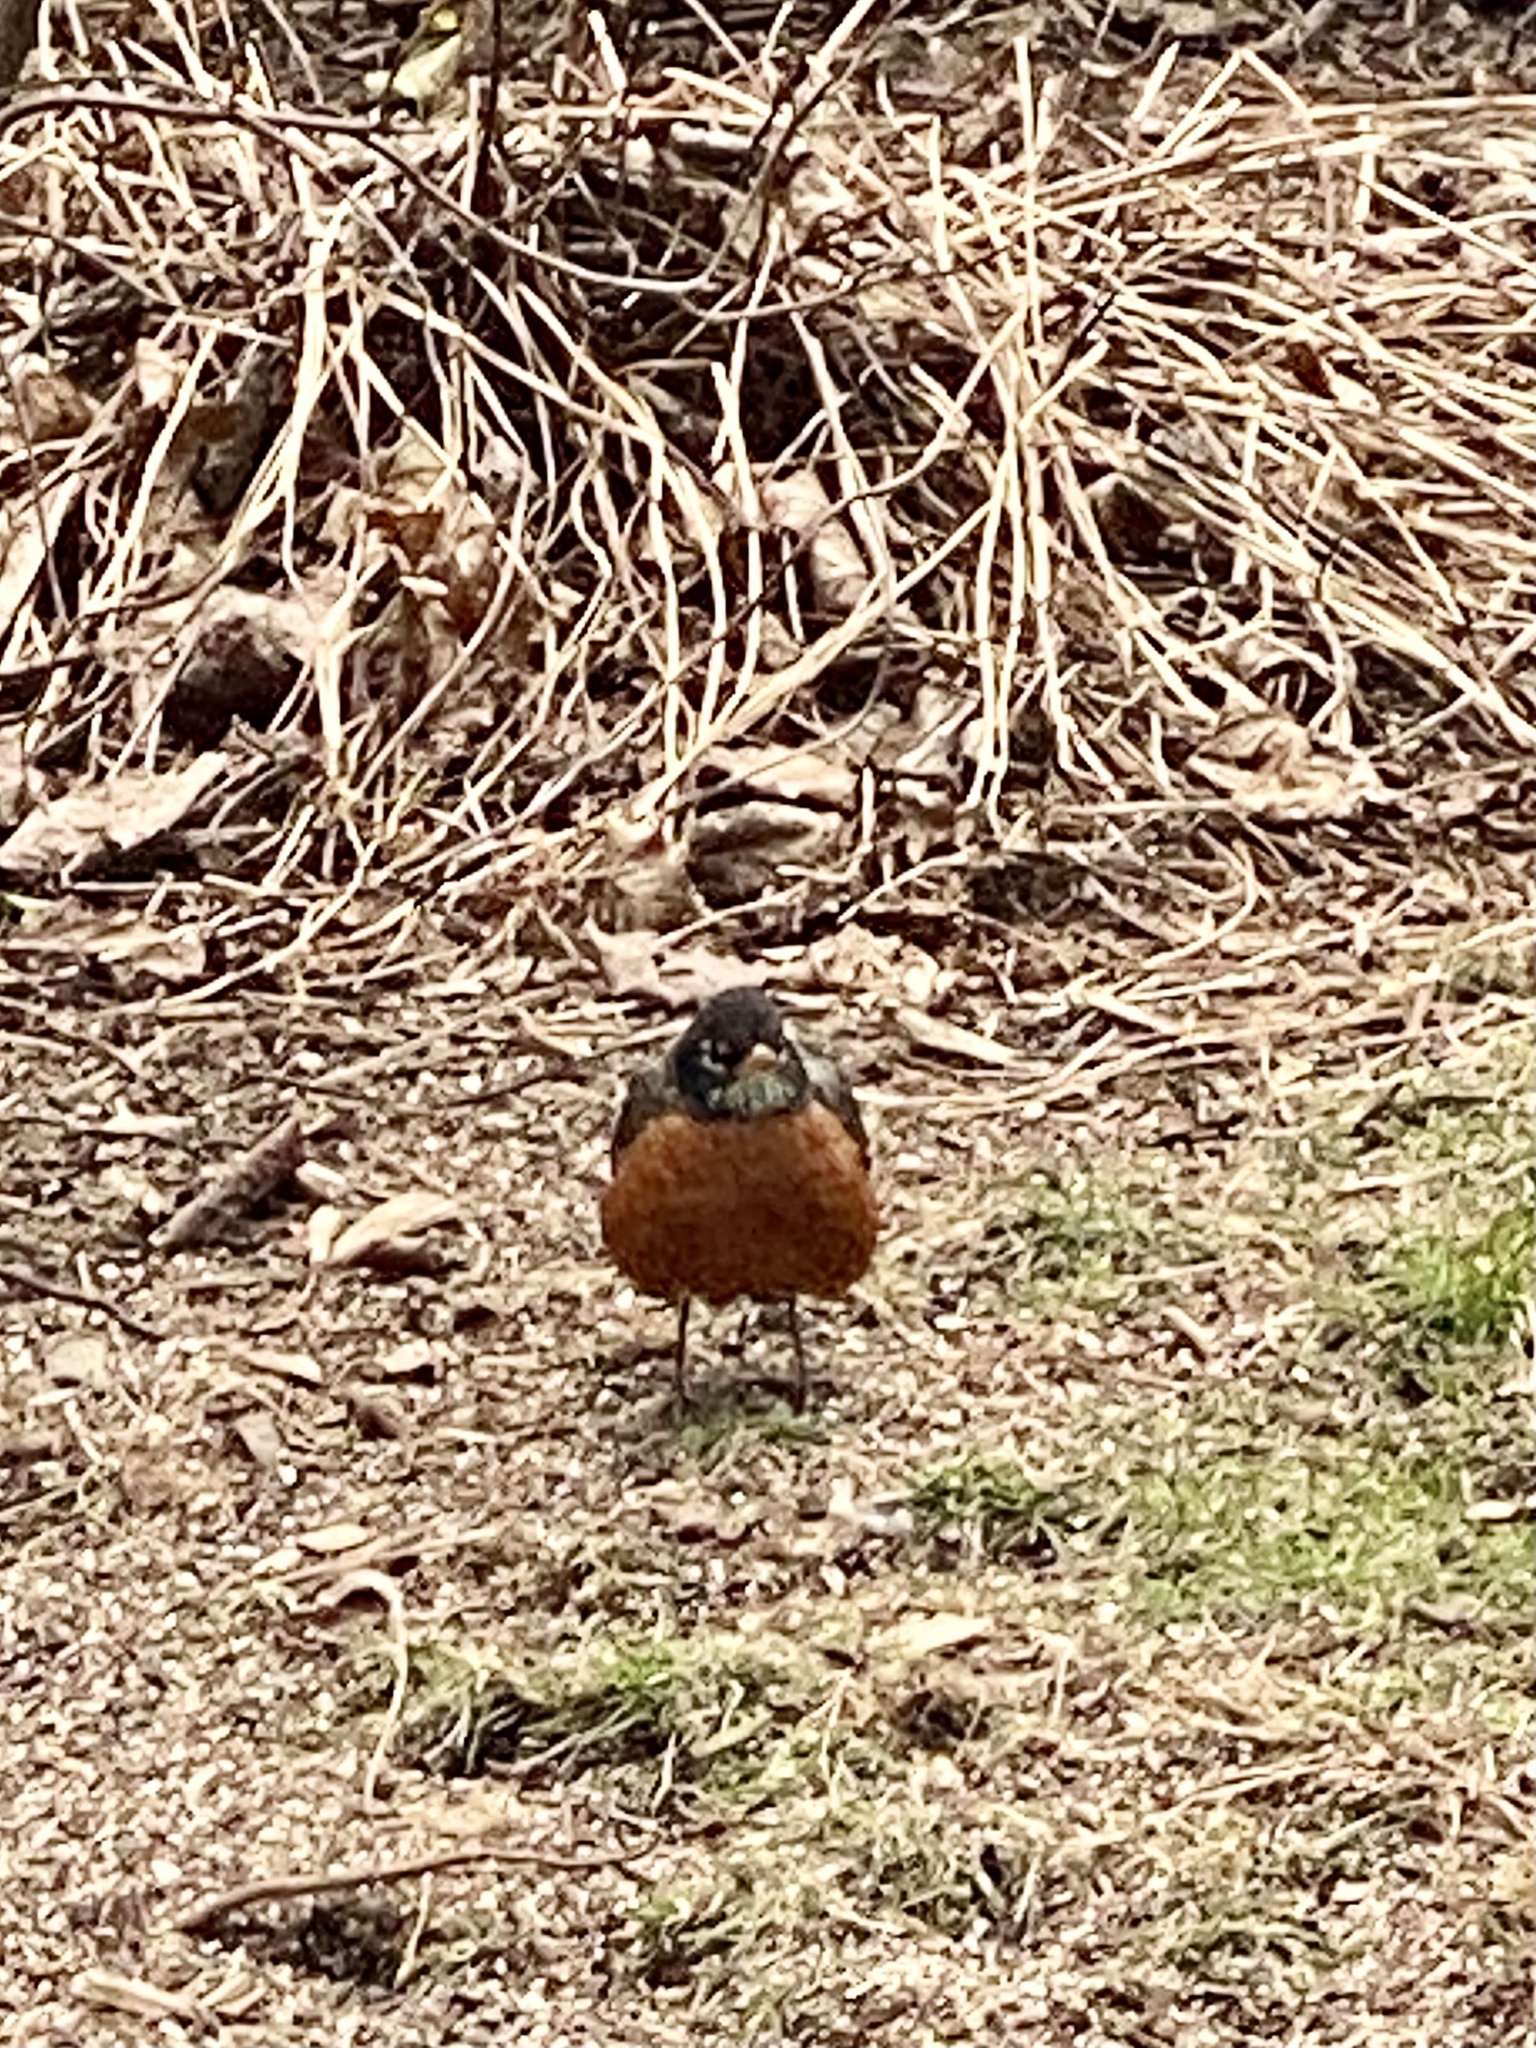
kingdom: Animalia
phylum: Chordata
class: Aves
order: Passeriformes
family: Turdidae
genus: Turdus
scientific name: Turdus migratorius
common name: American robin
